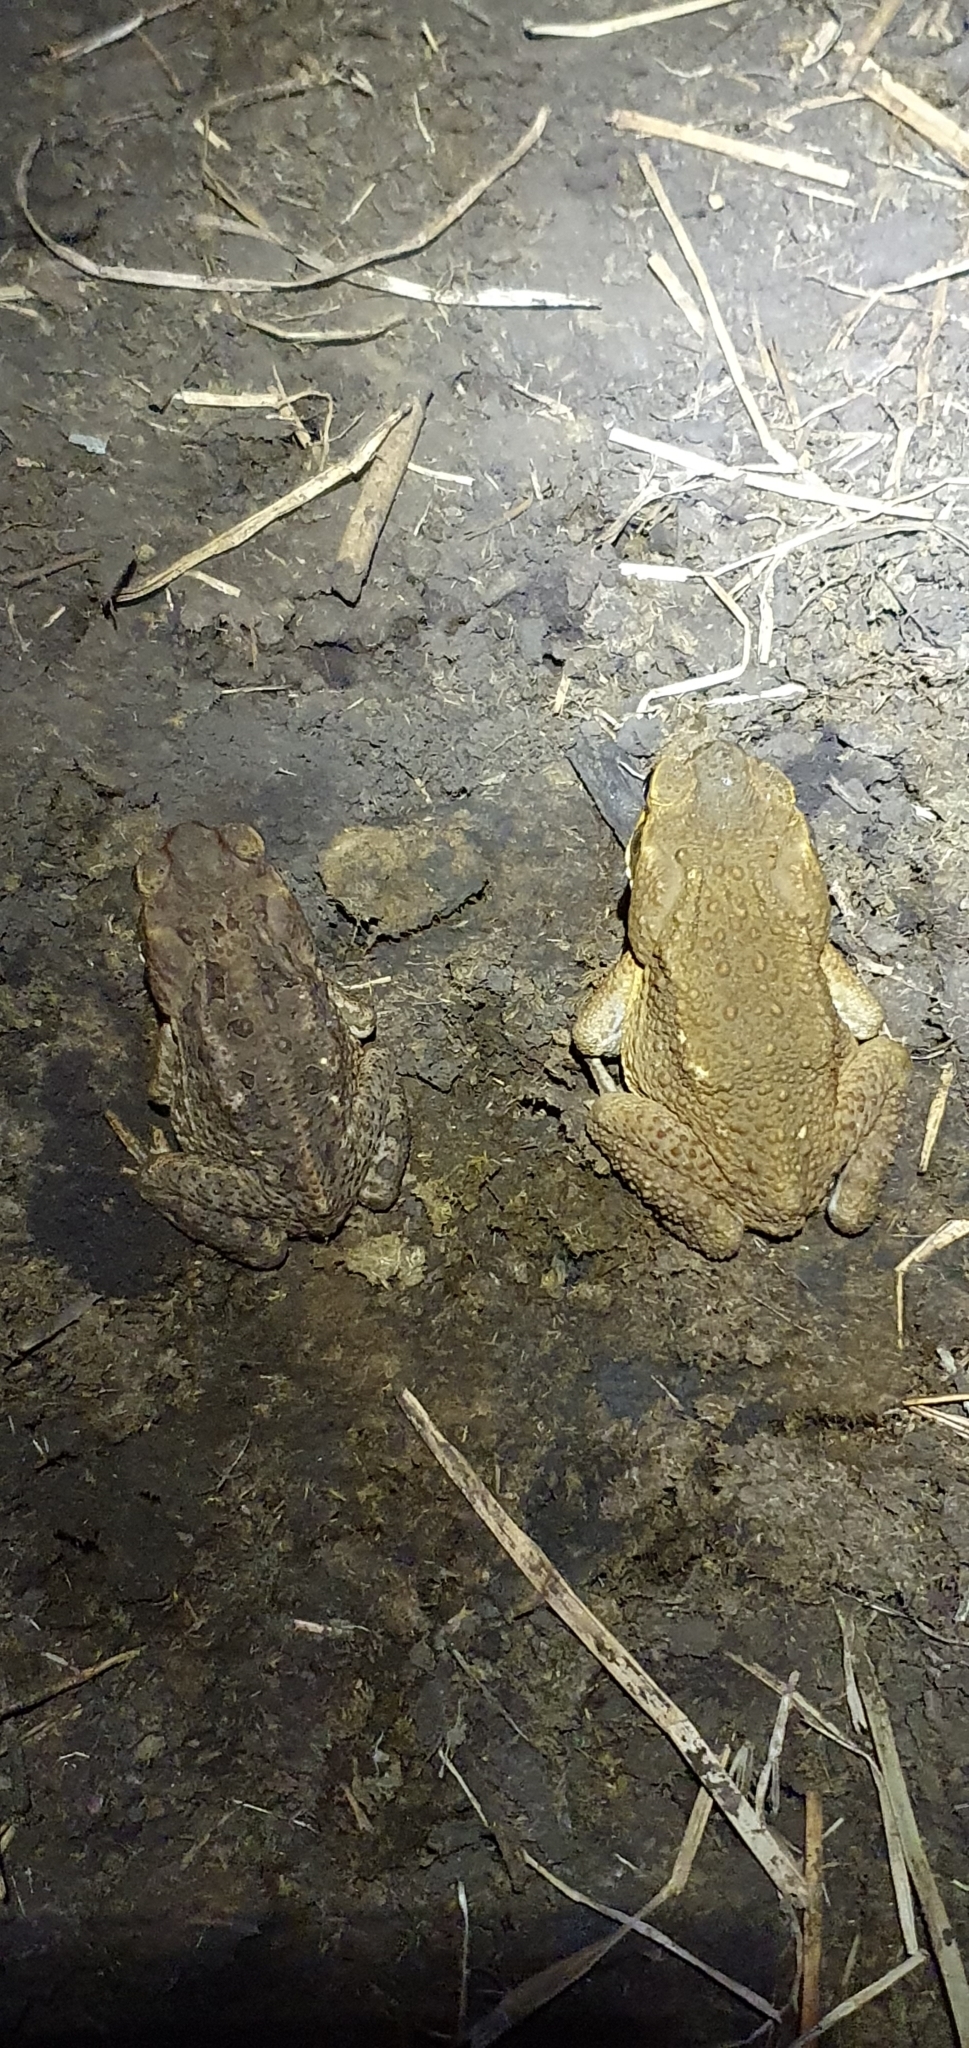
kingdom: Animalia
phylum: Chordata
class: Amphibia
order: Anura
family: Bufonidae
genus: Rhinella
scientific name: Rhinella marina
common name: Cane toad
